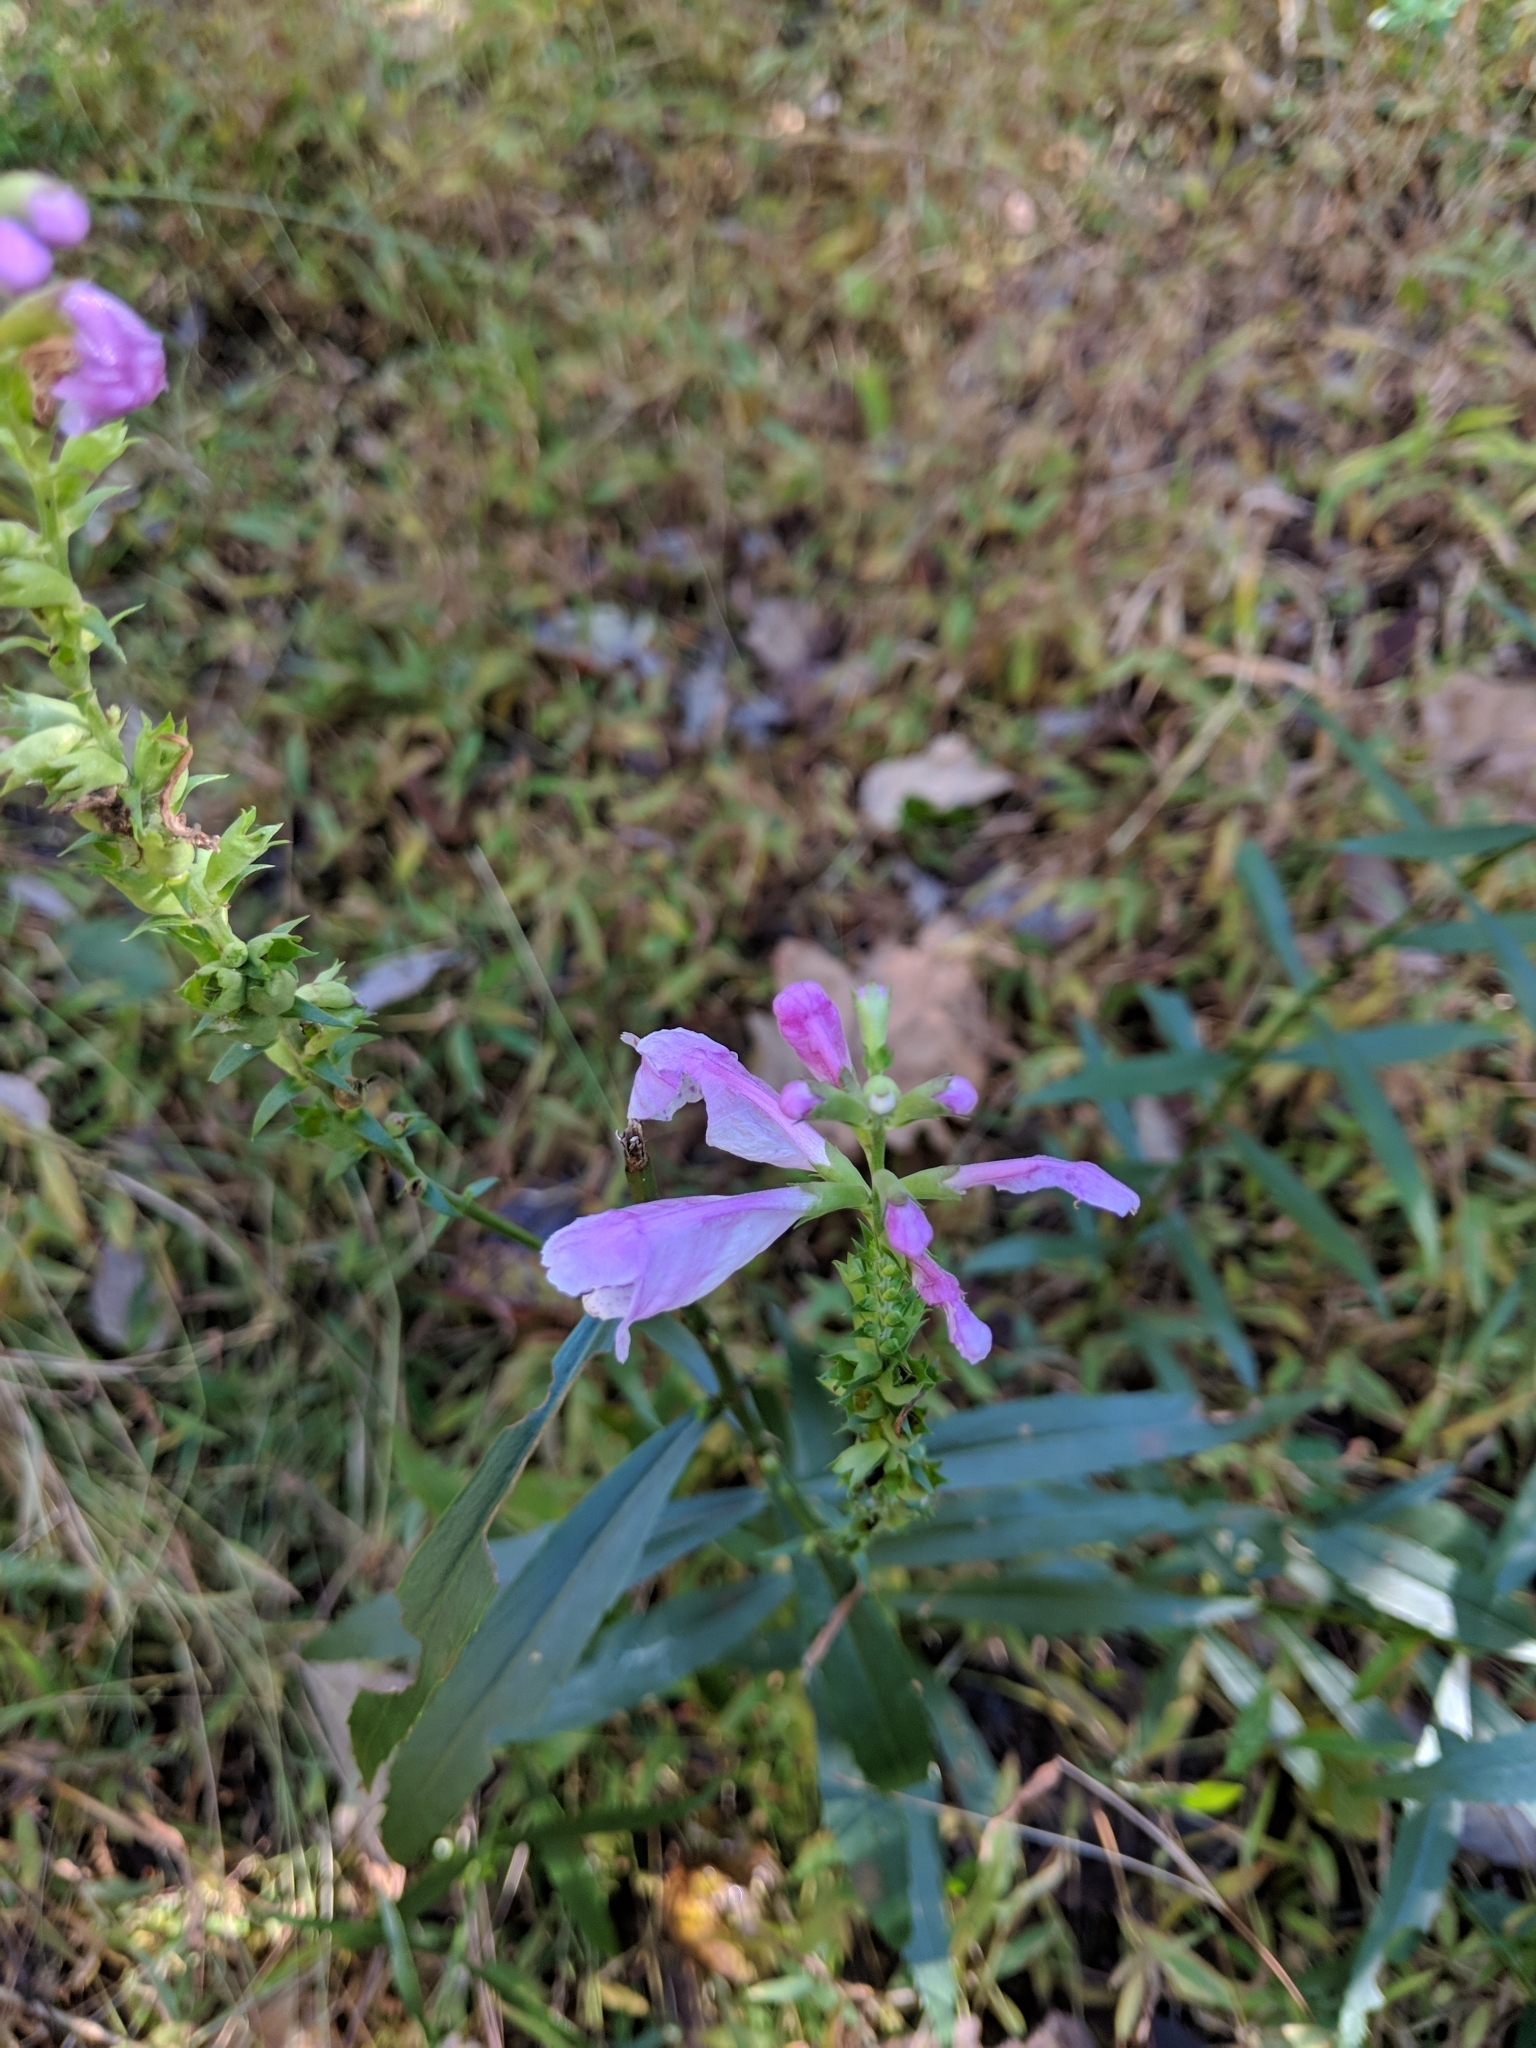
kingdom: Plantae
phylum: Tracheophyta
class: Magnoliopsida
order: Lamiales
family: Lamiaceae
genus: Physostegia
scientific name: Physostegia virginiana
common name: Obedient-plant
